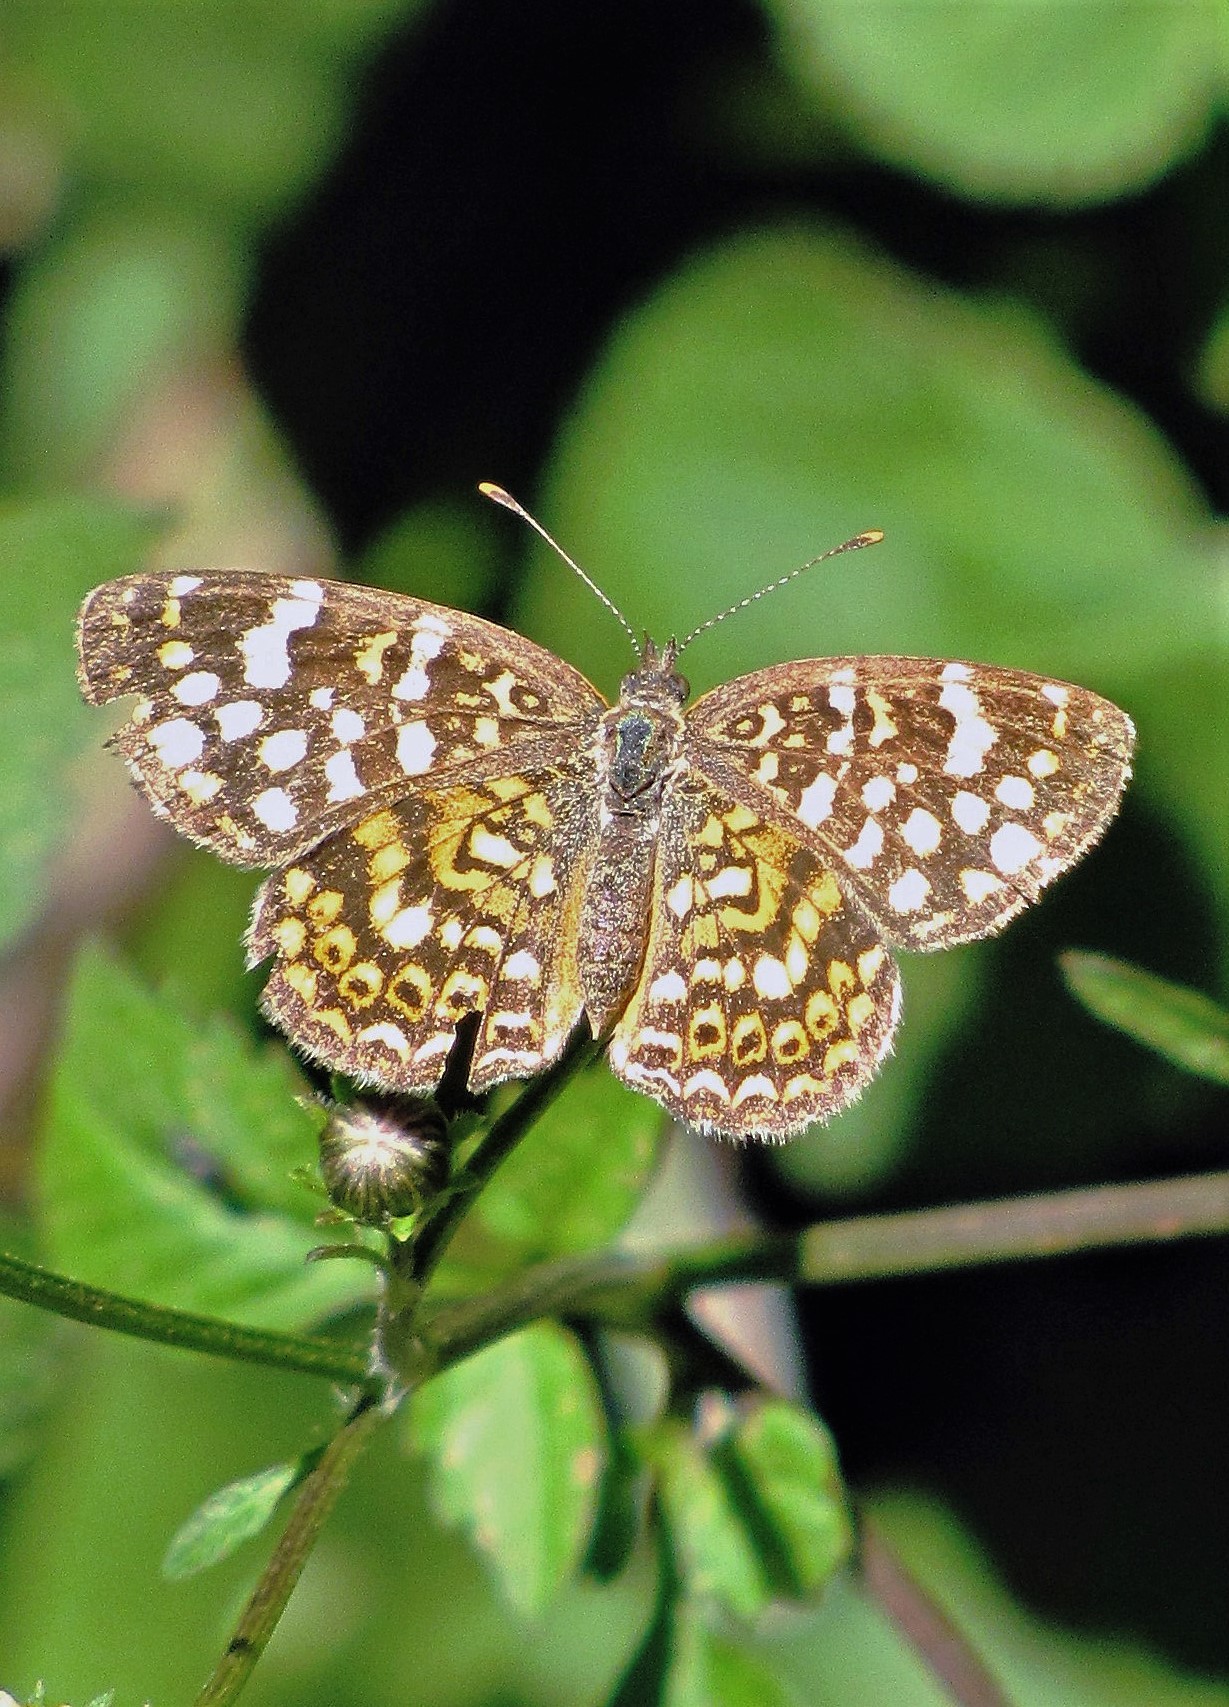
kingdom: Animalia
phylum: Arthropoda
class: Insecta
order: Lepidoptera
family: Nymphalidae
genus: Phystis
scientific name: Phystis simois
